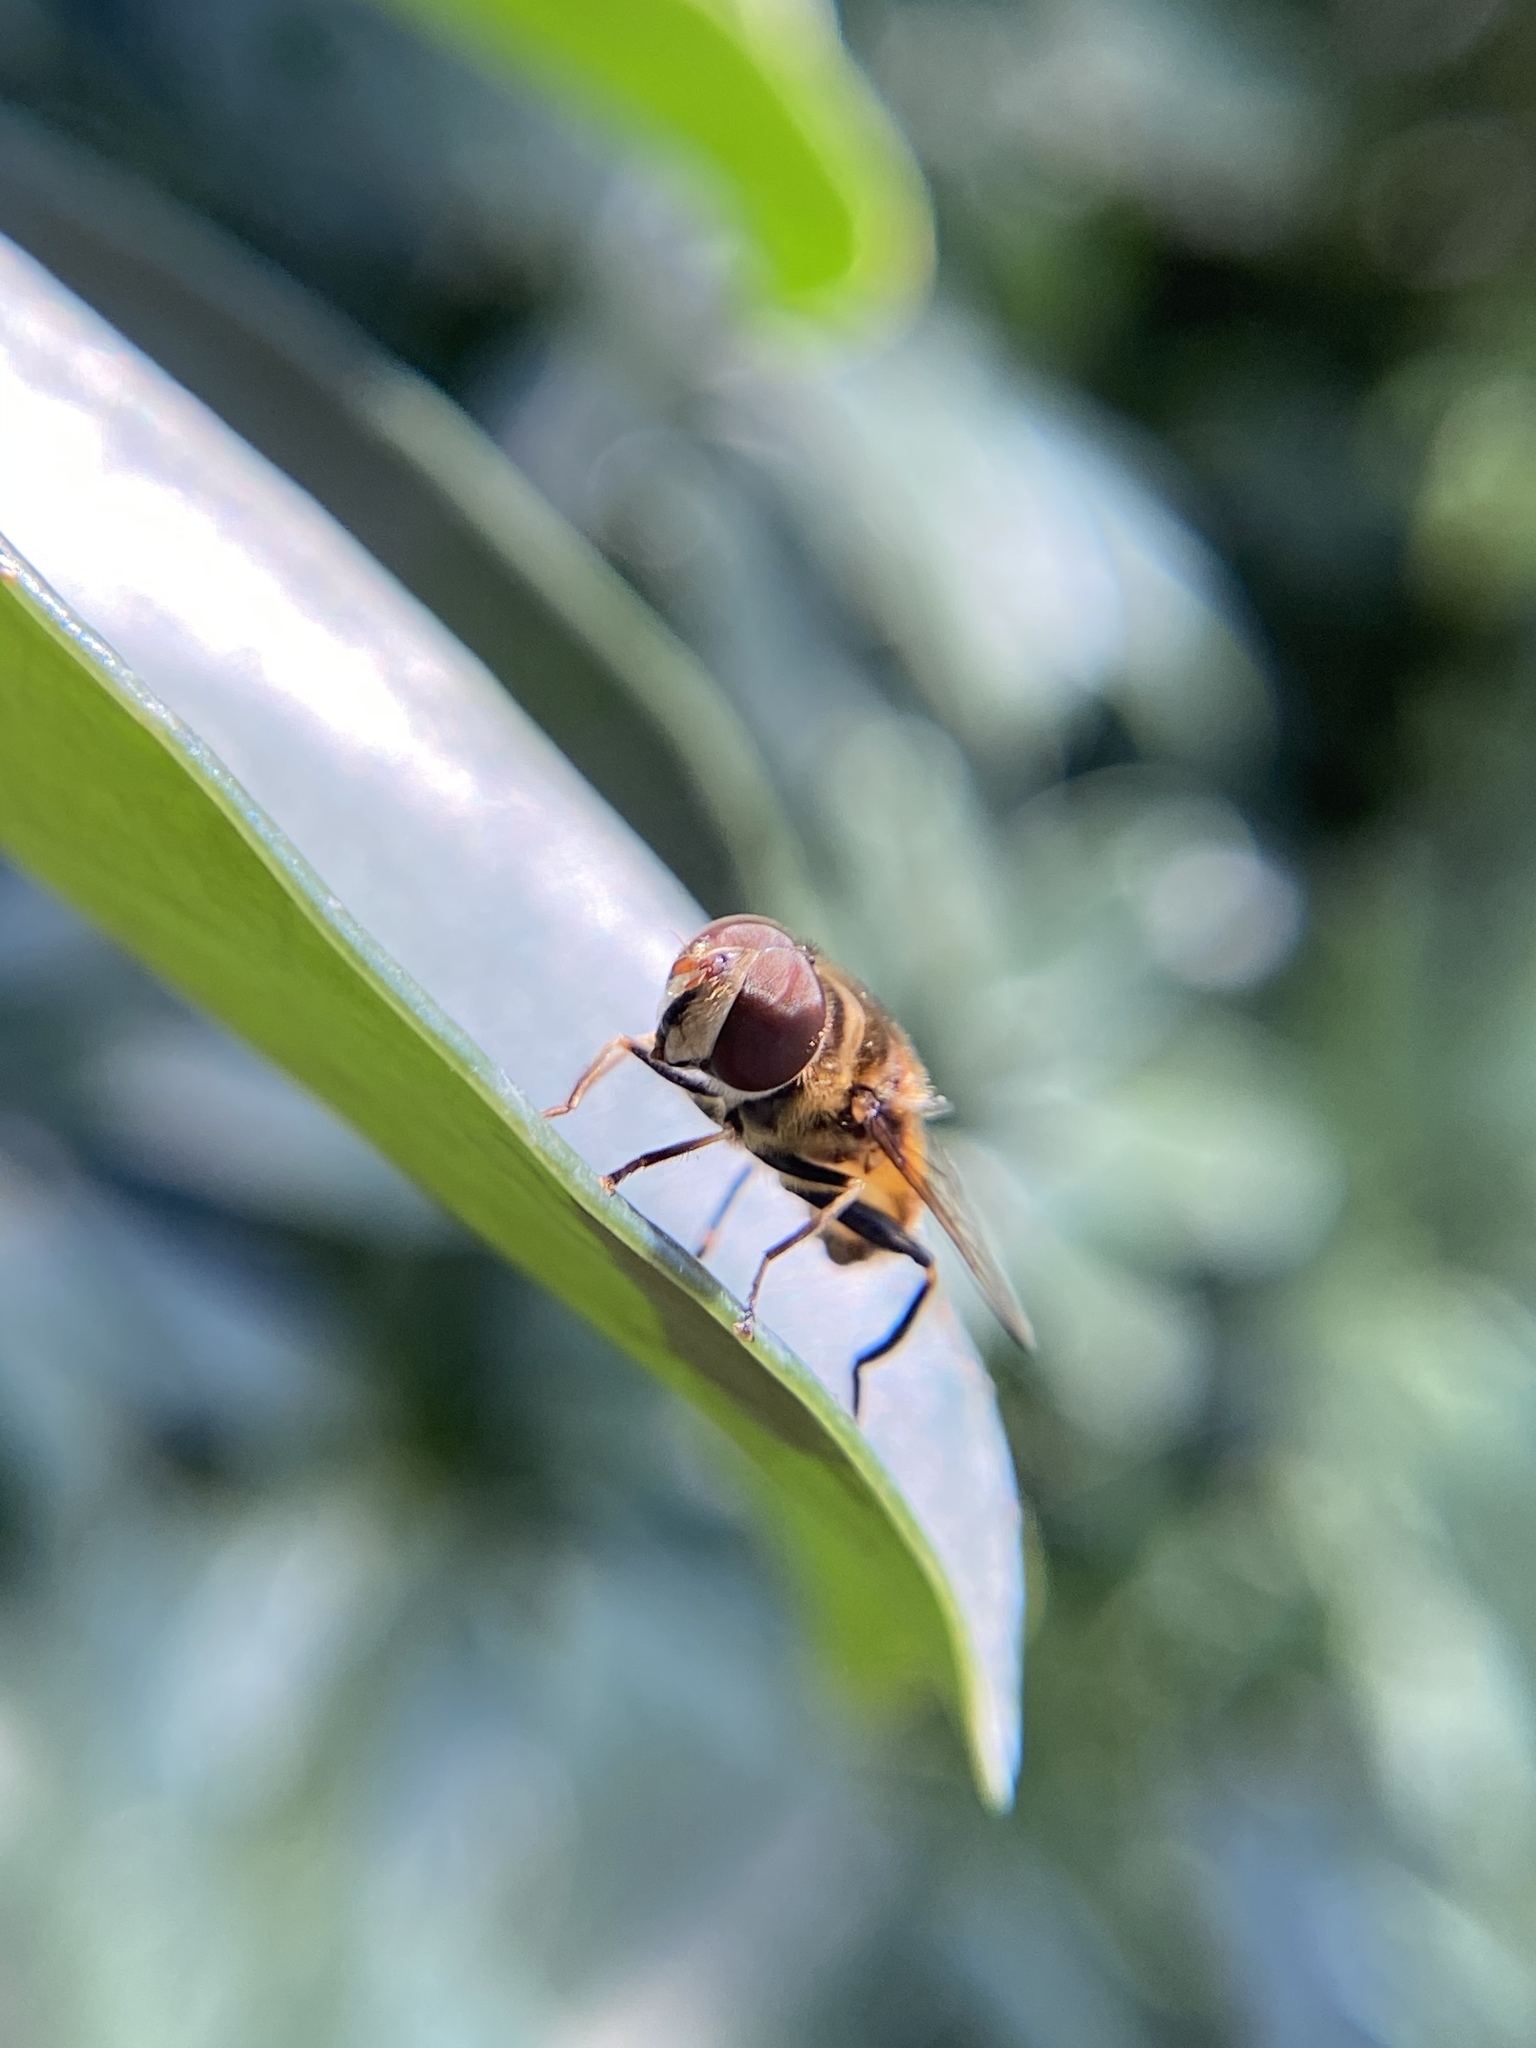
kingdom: Animalia
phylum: Arthropoda
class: Insecta
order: Diptera
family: Syrphidae
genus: Palpada
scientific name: Palpada agrorum
